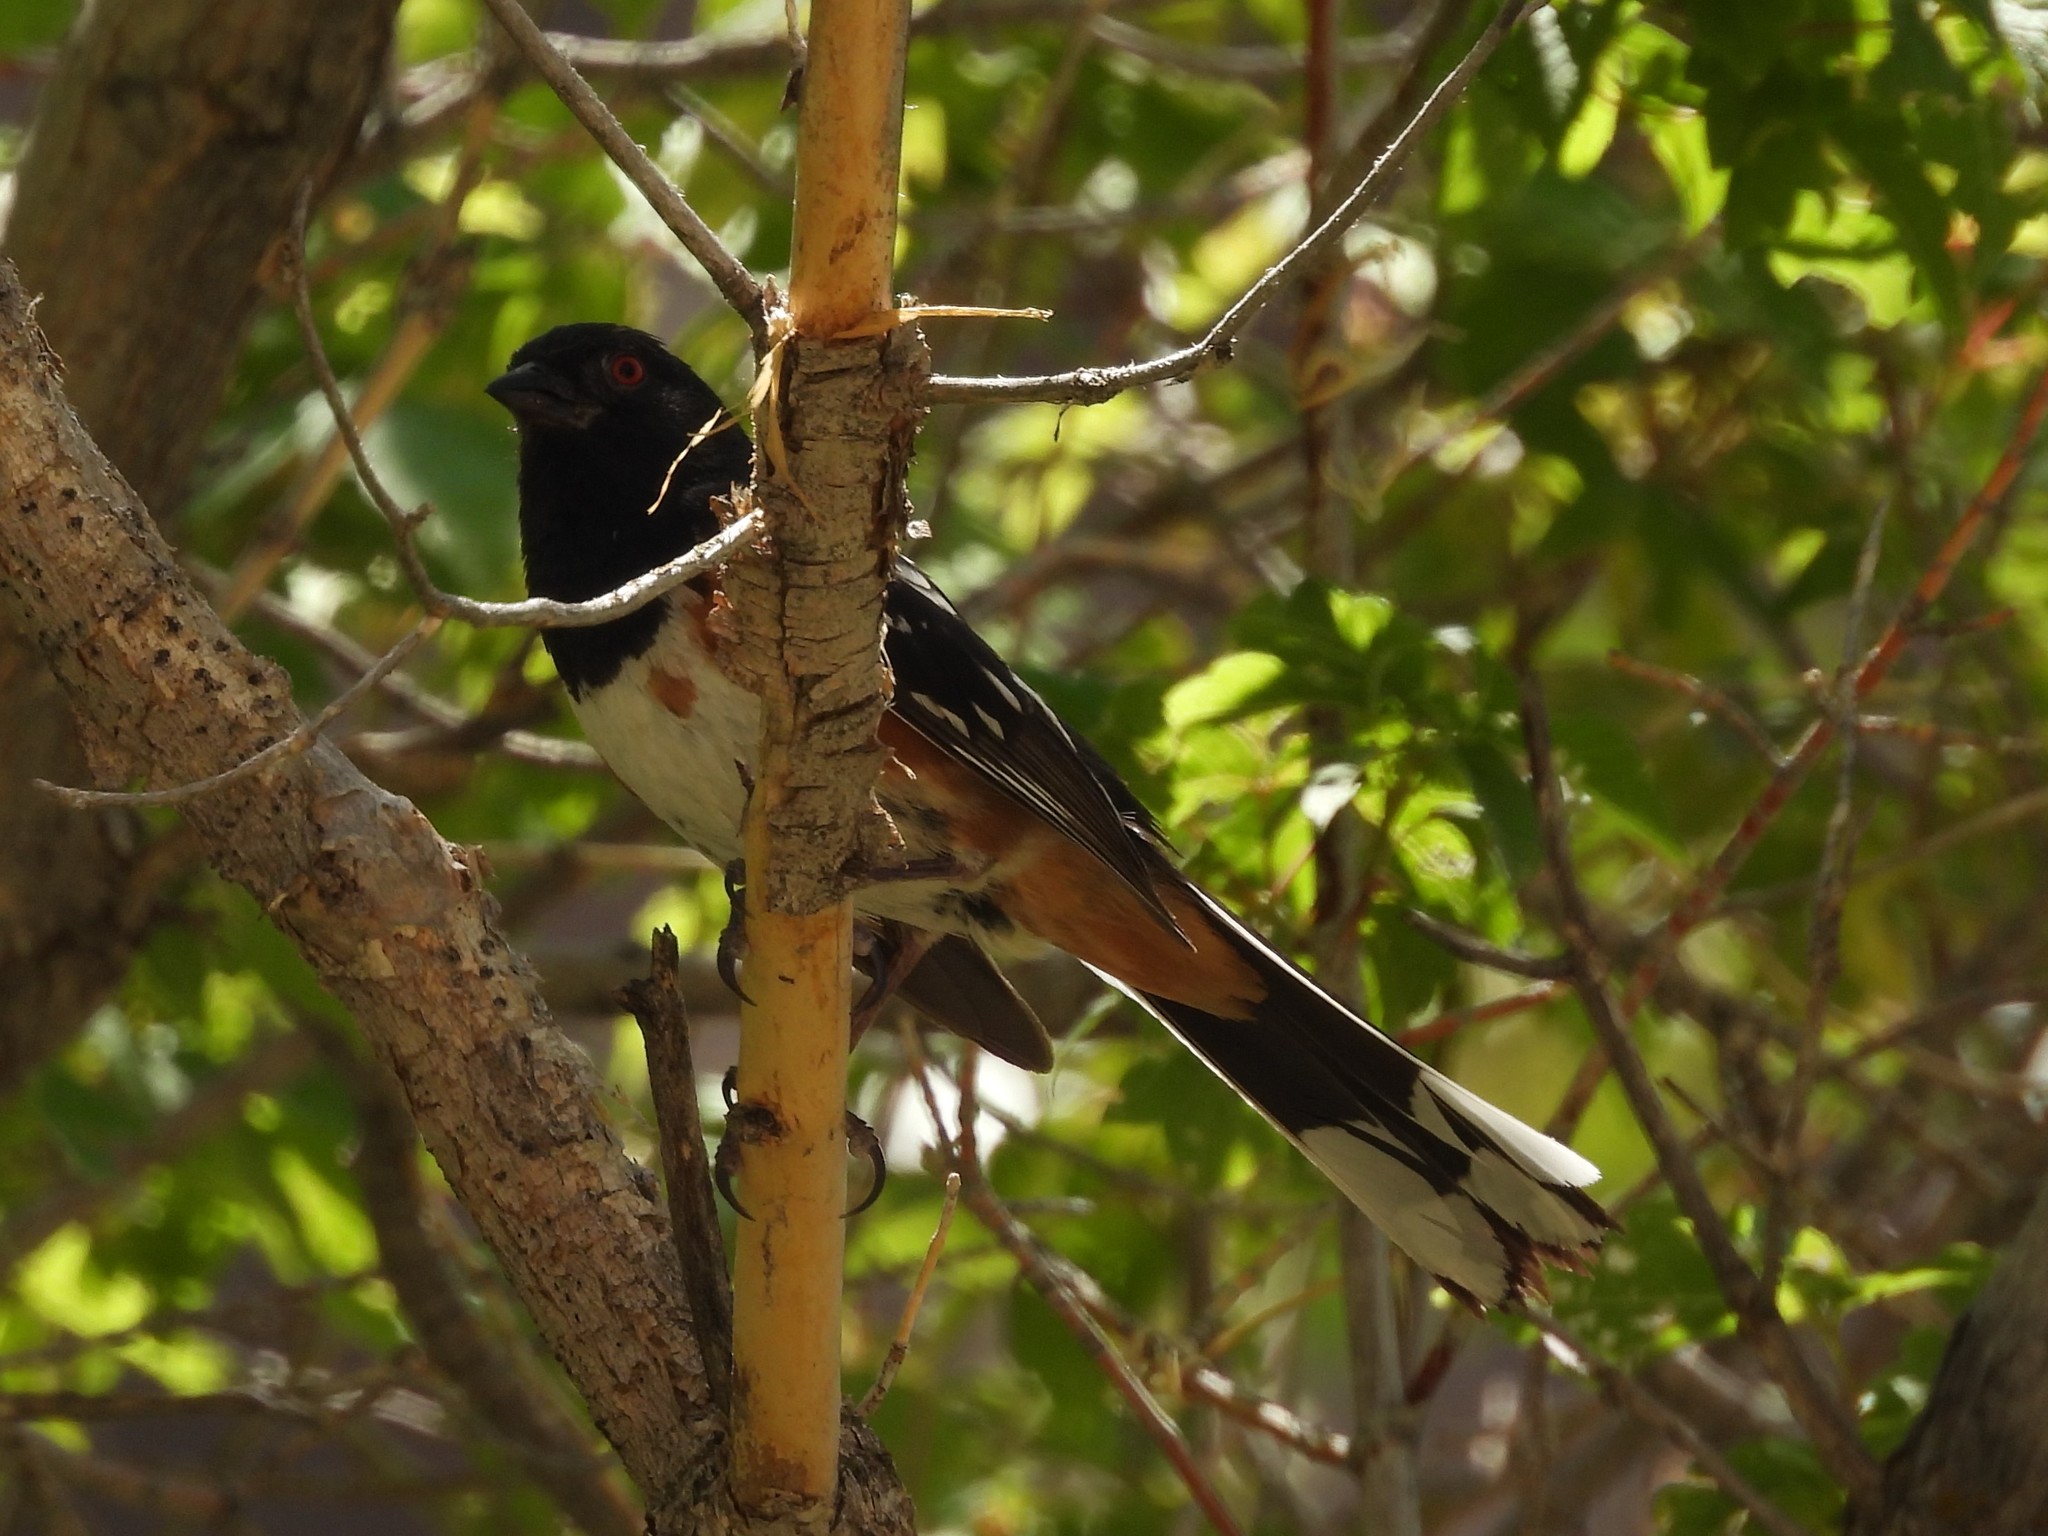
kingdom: Animalia
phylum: Chordata
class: Aves
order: Passeriformes
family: Passerellidae
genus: Pipilo
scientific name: Pipilo maculatus
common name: Spotted towhee
